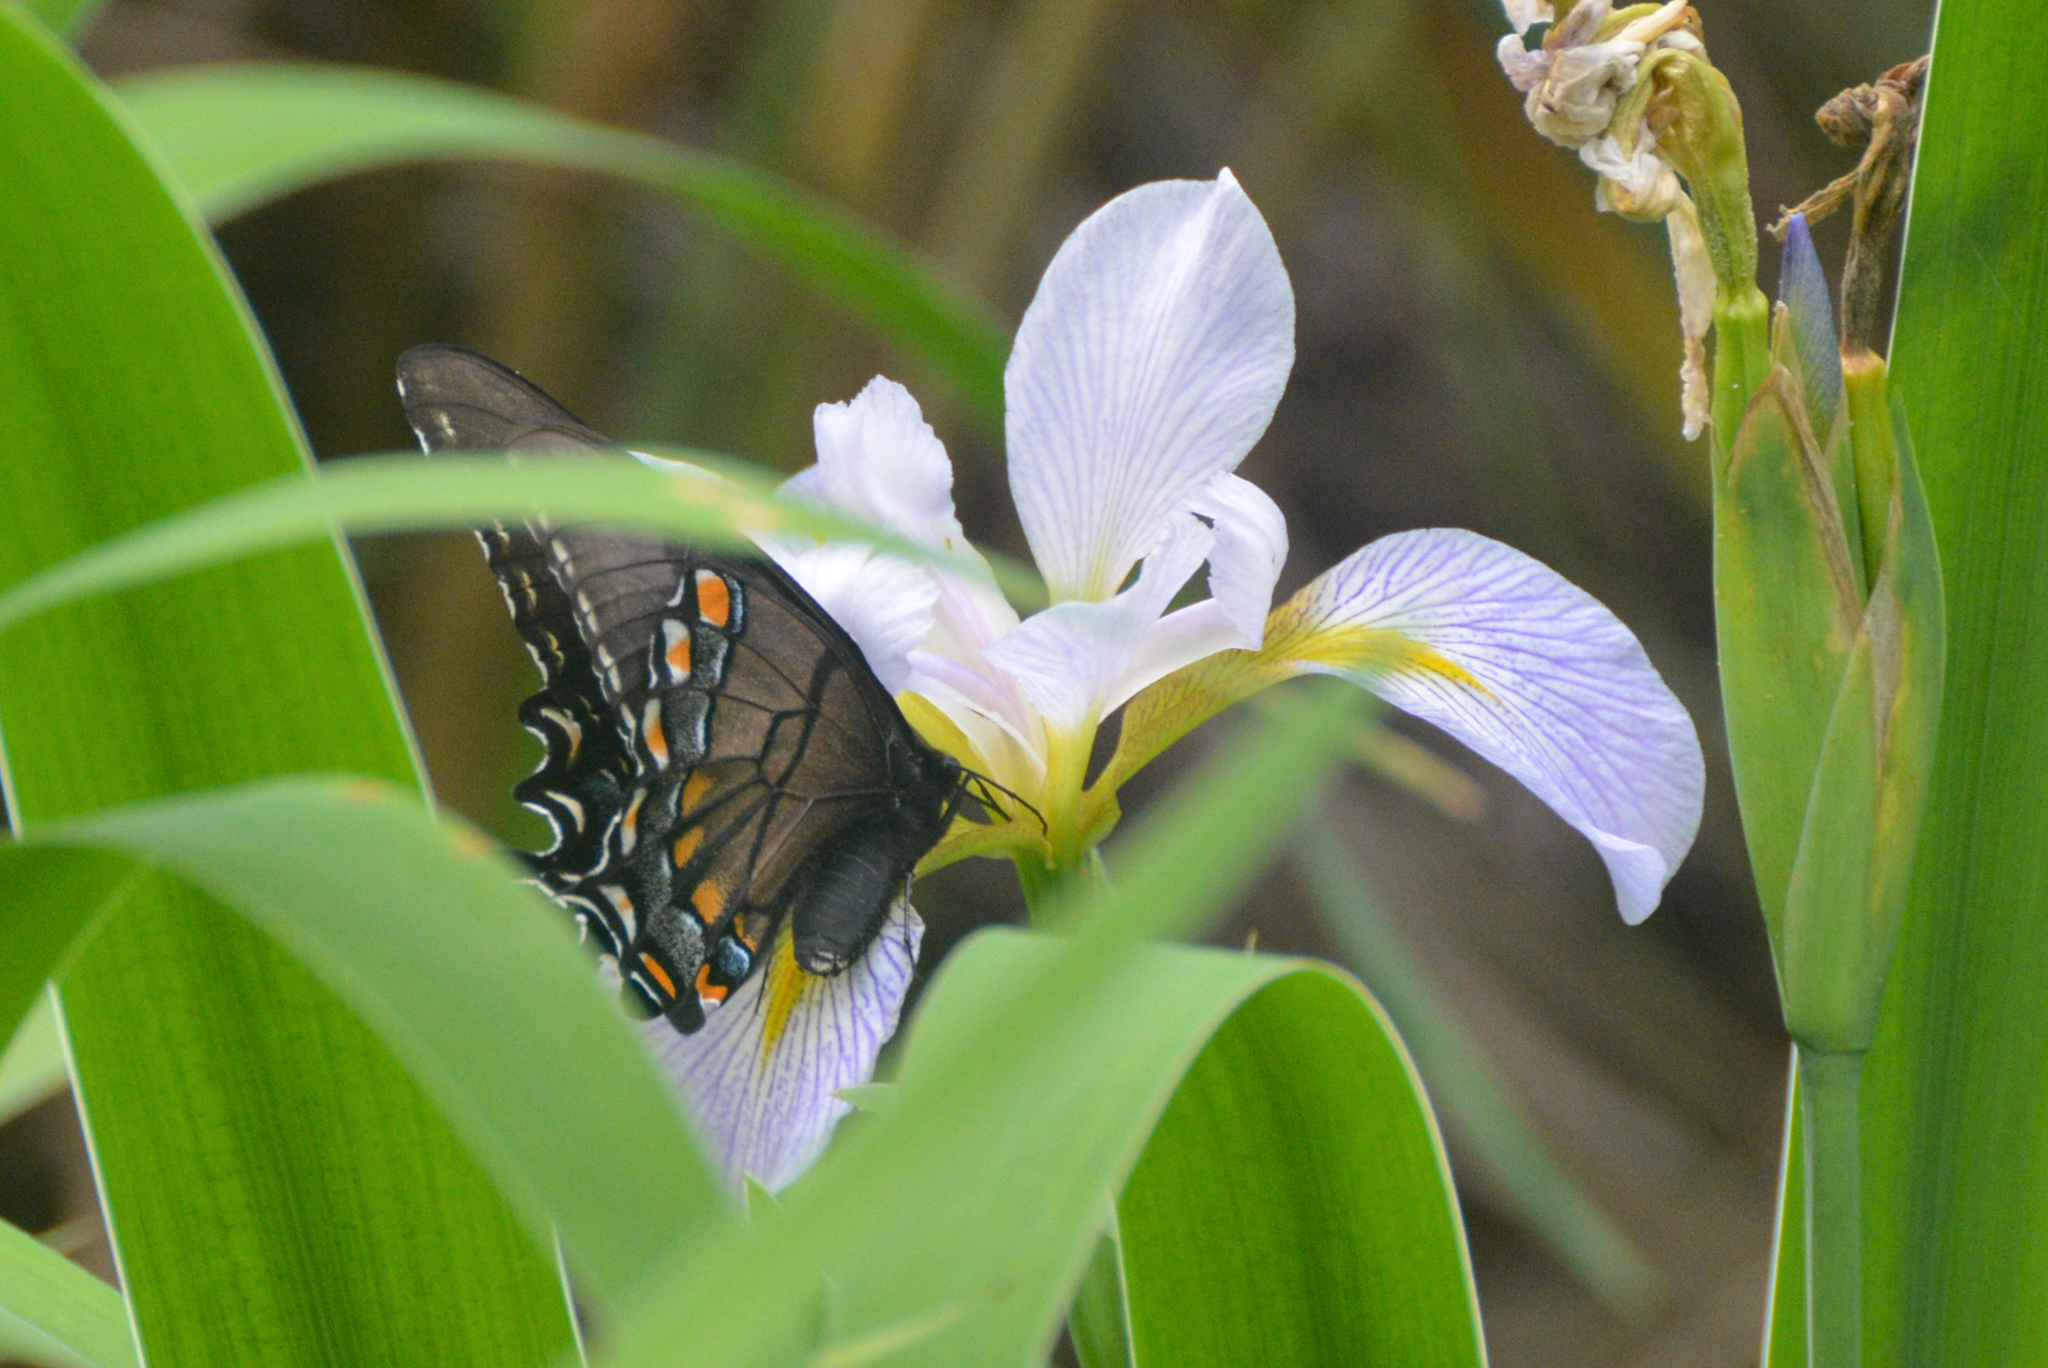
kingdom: Plantae
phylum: Tracheophyta
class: Liliopsida
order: Asparagales
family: Iridaceae
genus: Iris
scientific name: Iris virginica
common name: Southern blue flag
